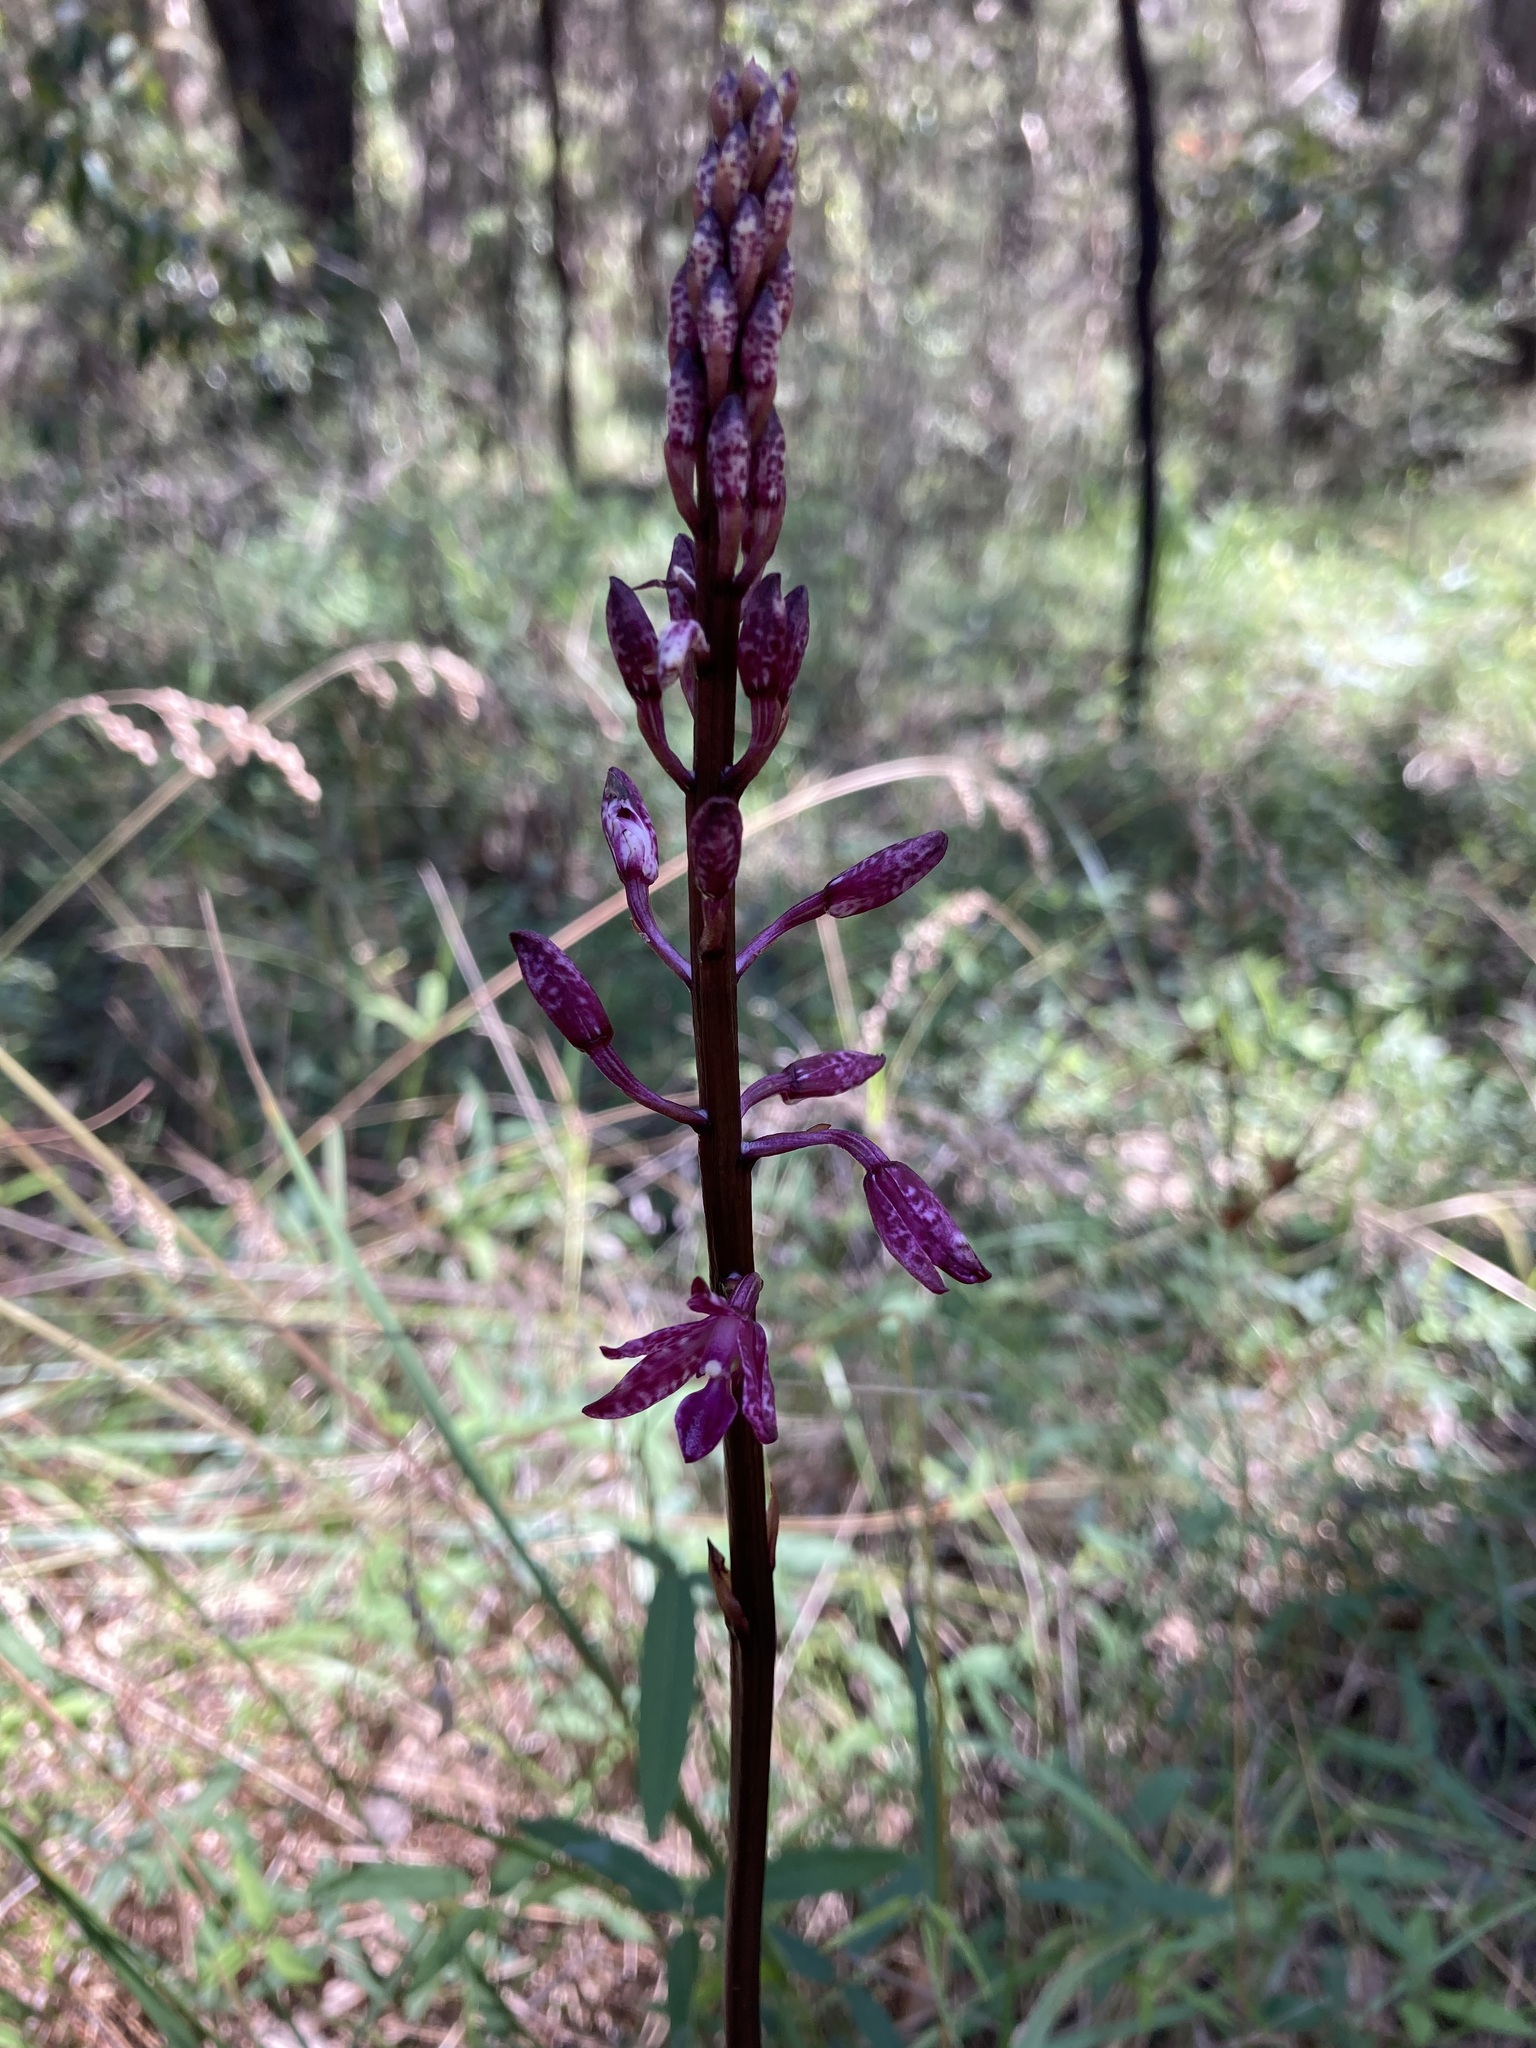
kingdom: Plantae
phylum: Tracheophyta
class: Liliopsida
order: Asparagales
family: Orchidaceae
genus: Dipodium
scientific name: Dipodium squamatum
